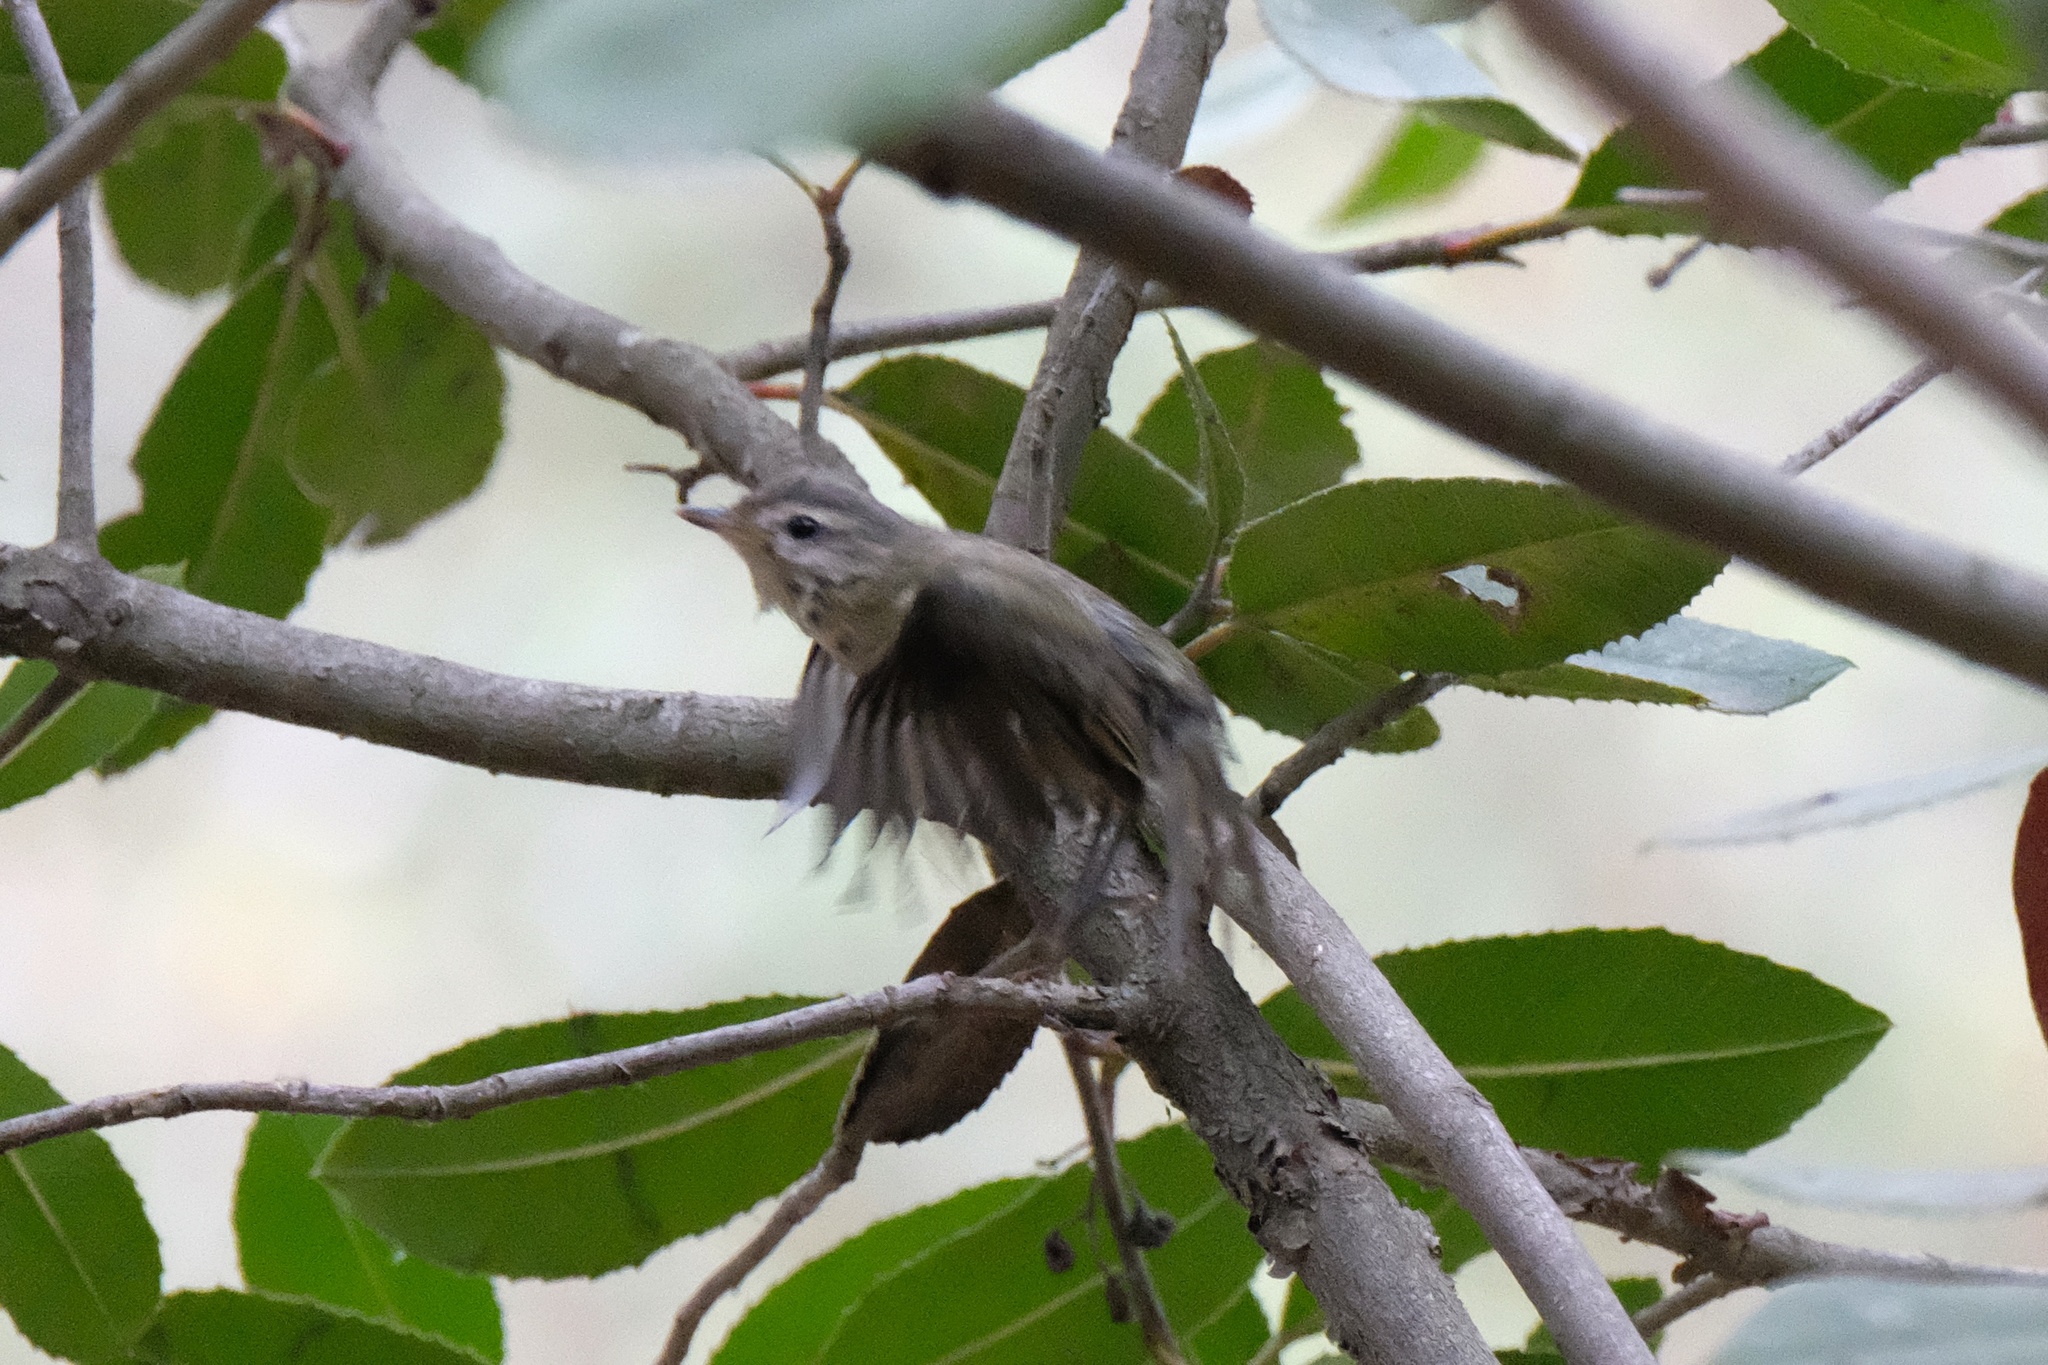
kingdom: Animalia
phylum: Chordata
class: Aves
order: Passeriformes
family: Vireonidae
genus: Vireo
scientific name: Vireo gilvus
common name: Warbling vireo
